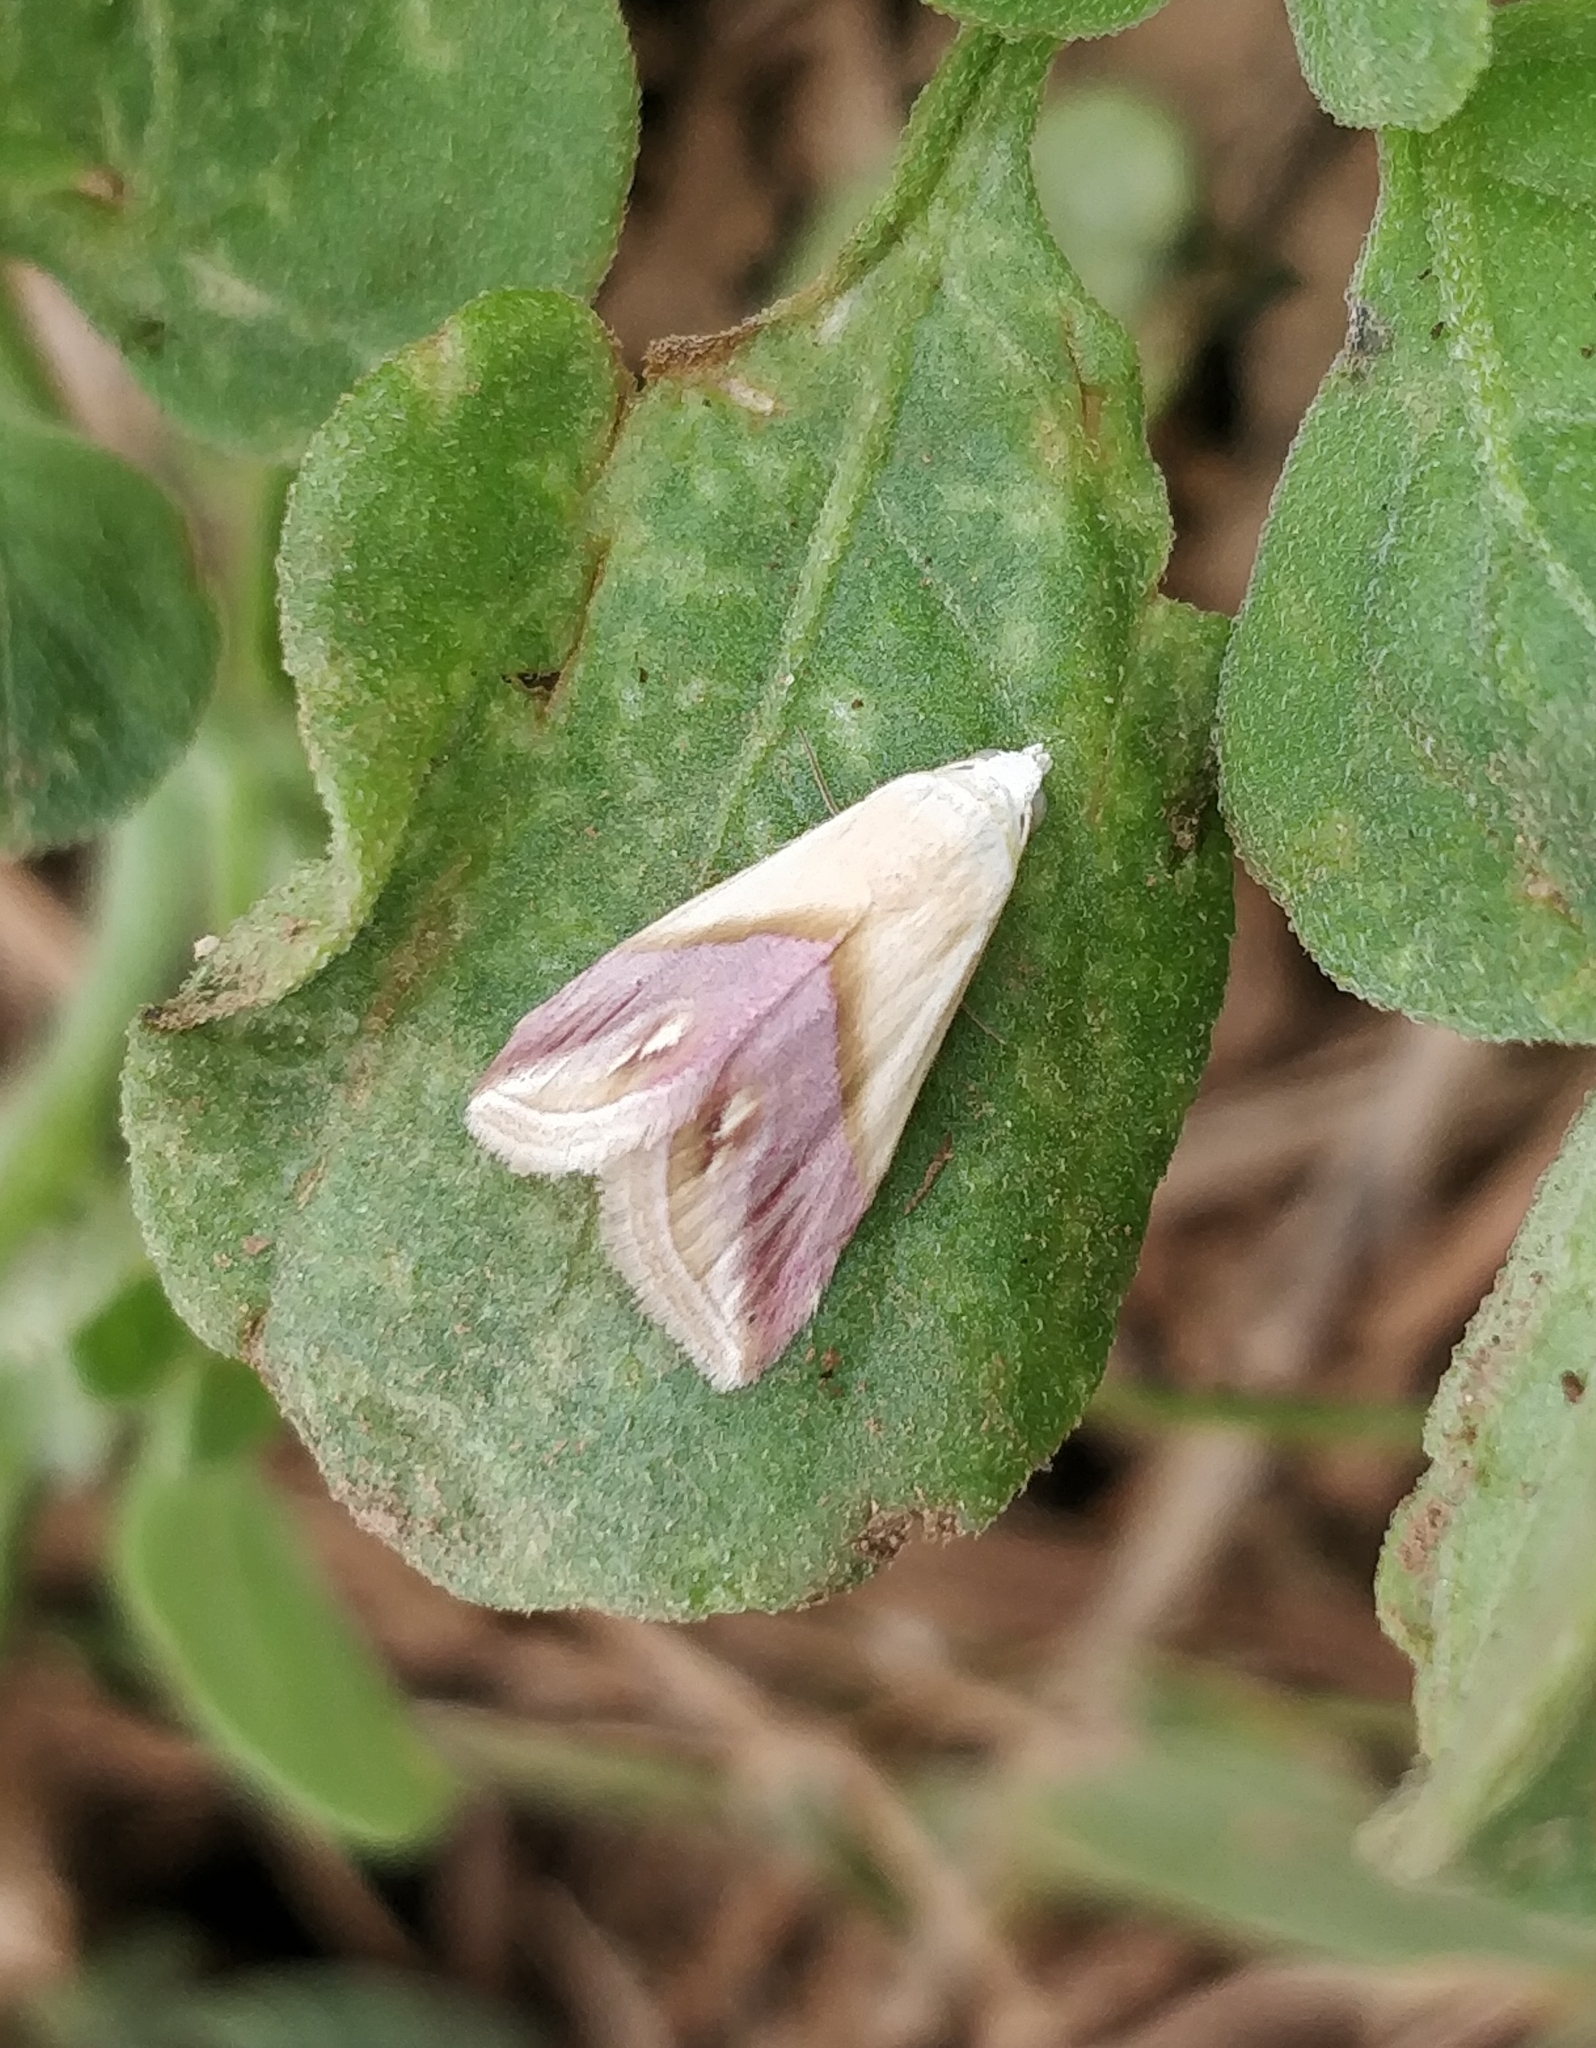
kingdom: Animalia
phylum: Arthropoda
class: Insecta
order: Lepidoptera
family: Noctuidae
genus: Eublemma
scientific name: Eublemma cochylioides
